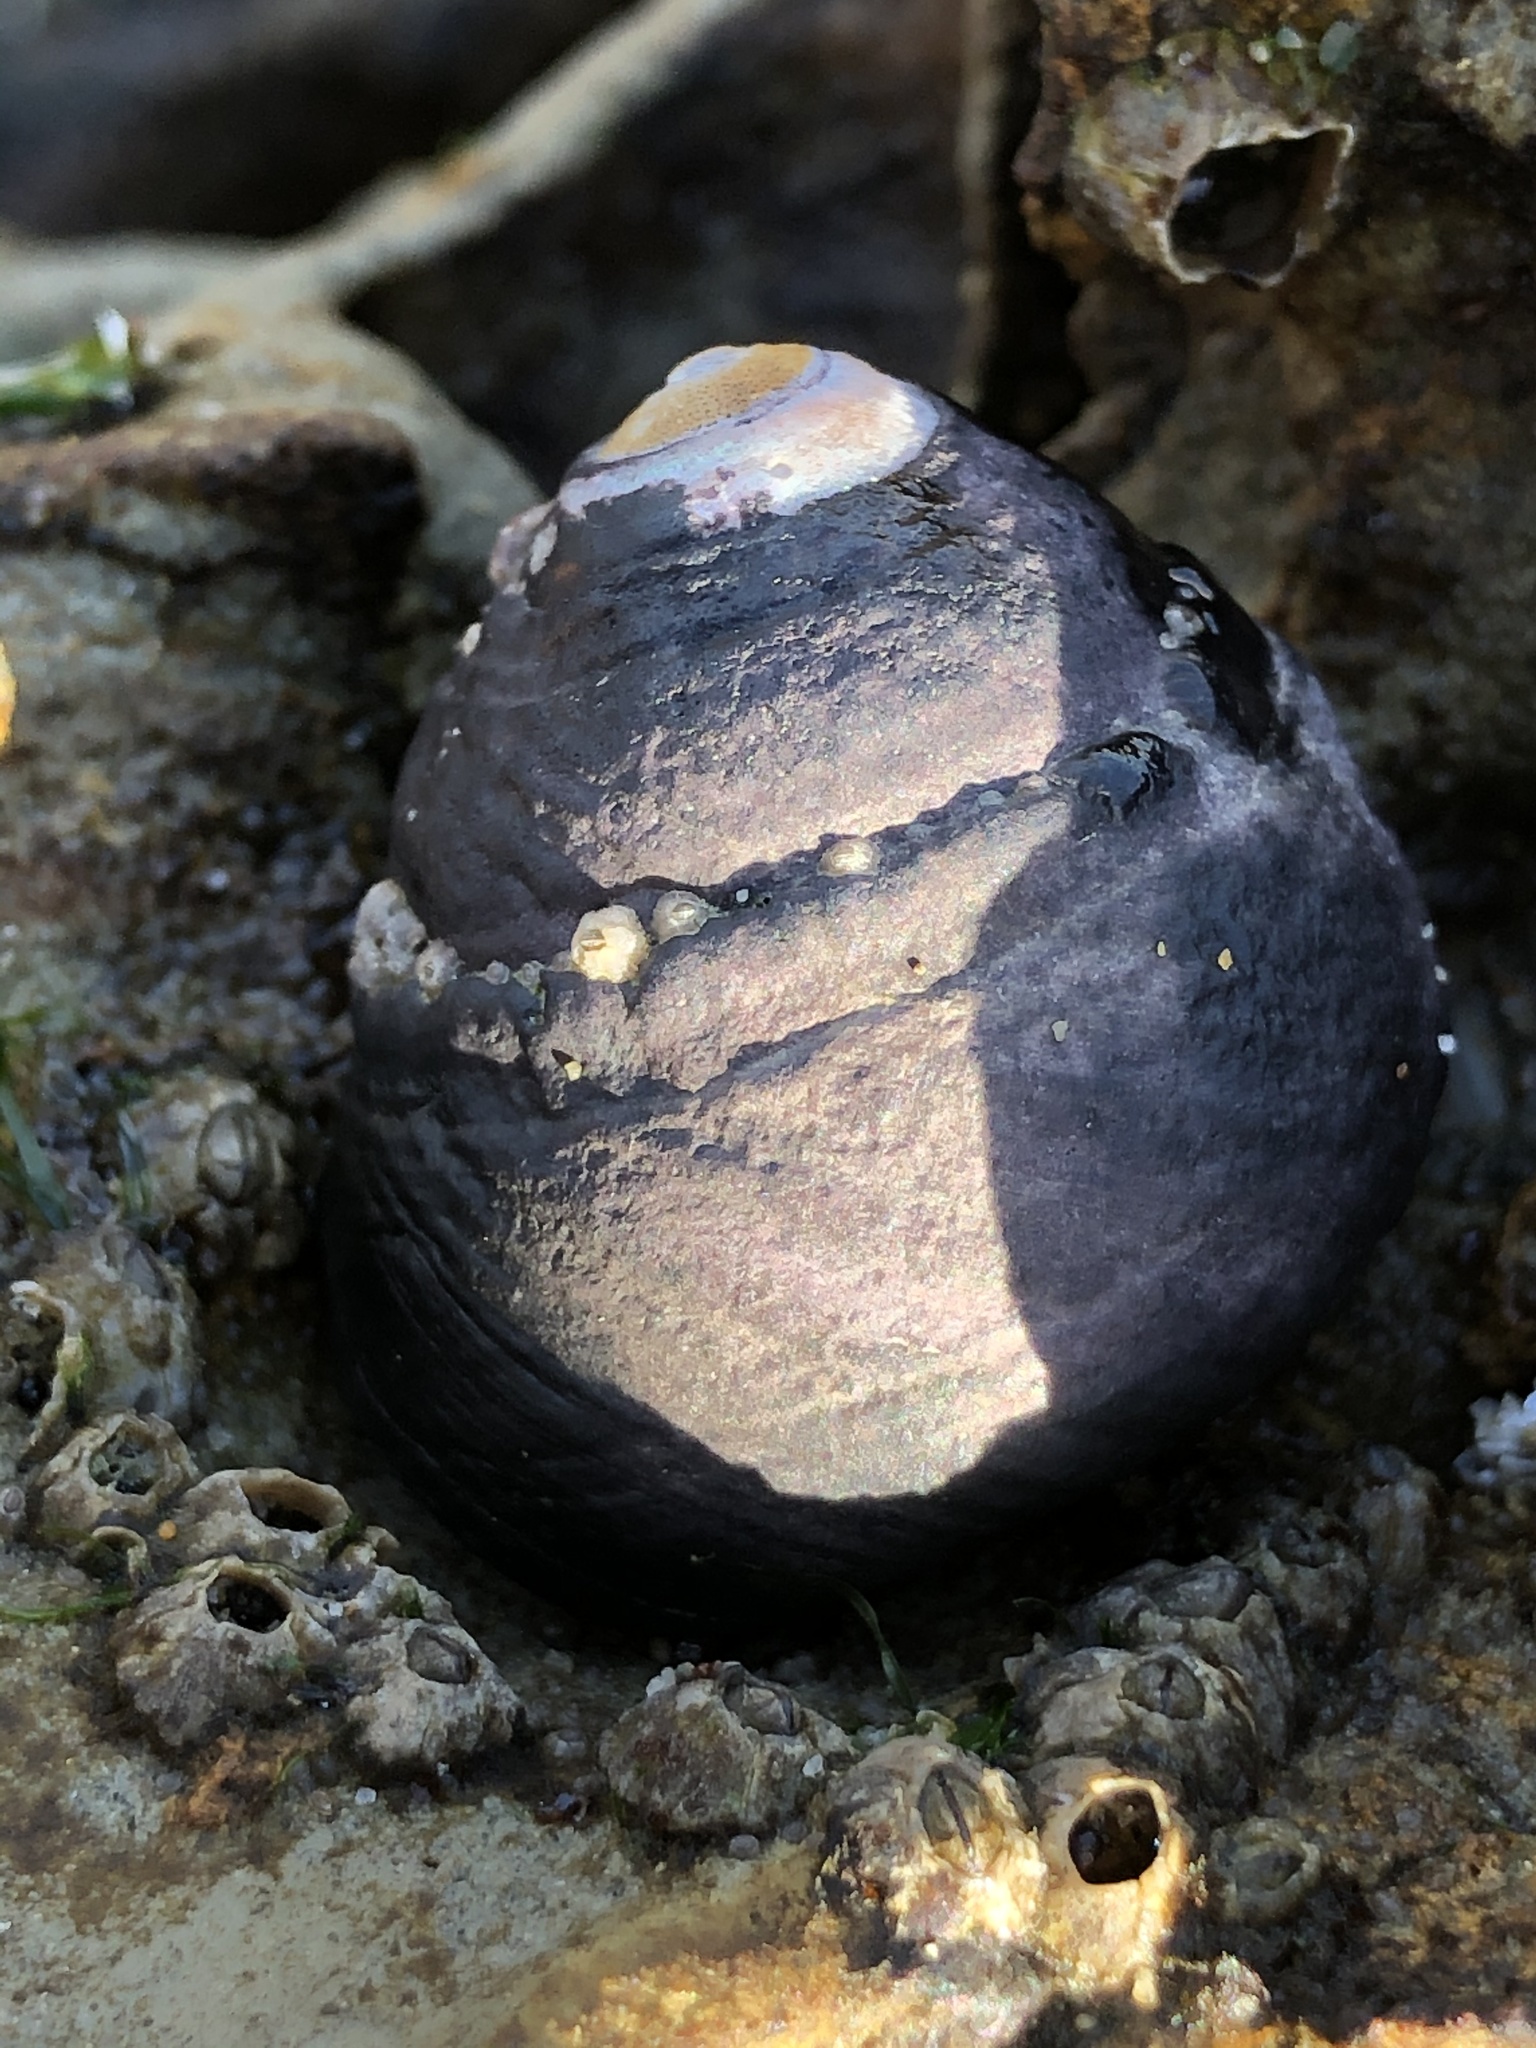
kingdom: Animalia
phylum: Mollusca
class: Gastropoda
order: Trochida
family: Tegulidae
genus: Tegula
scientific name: Tegula funebralis
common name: Black tegula
